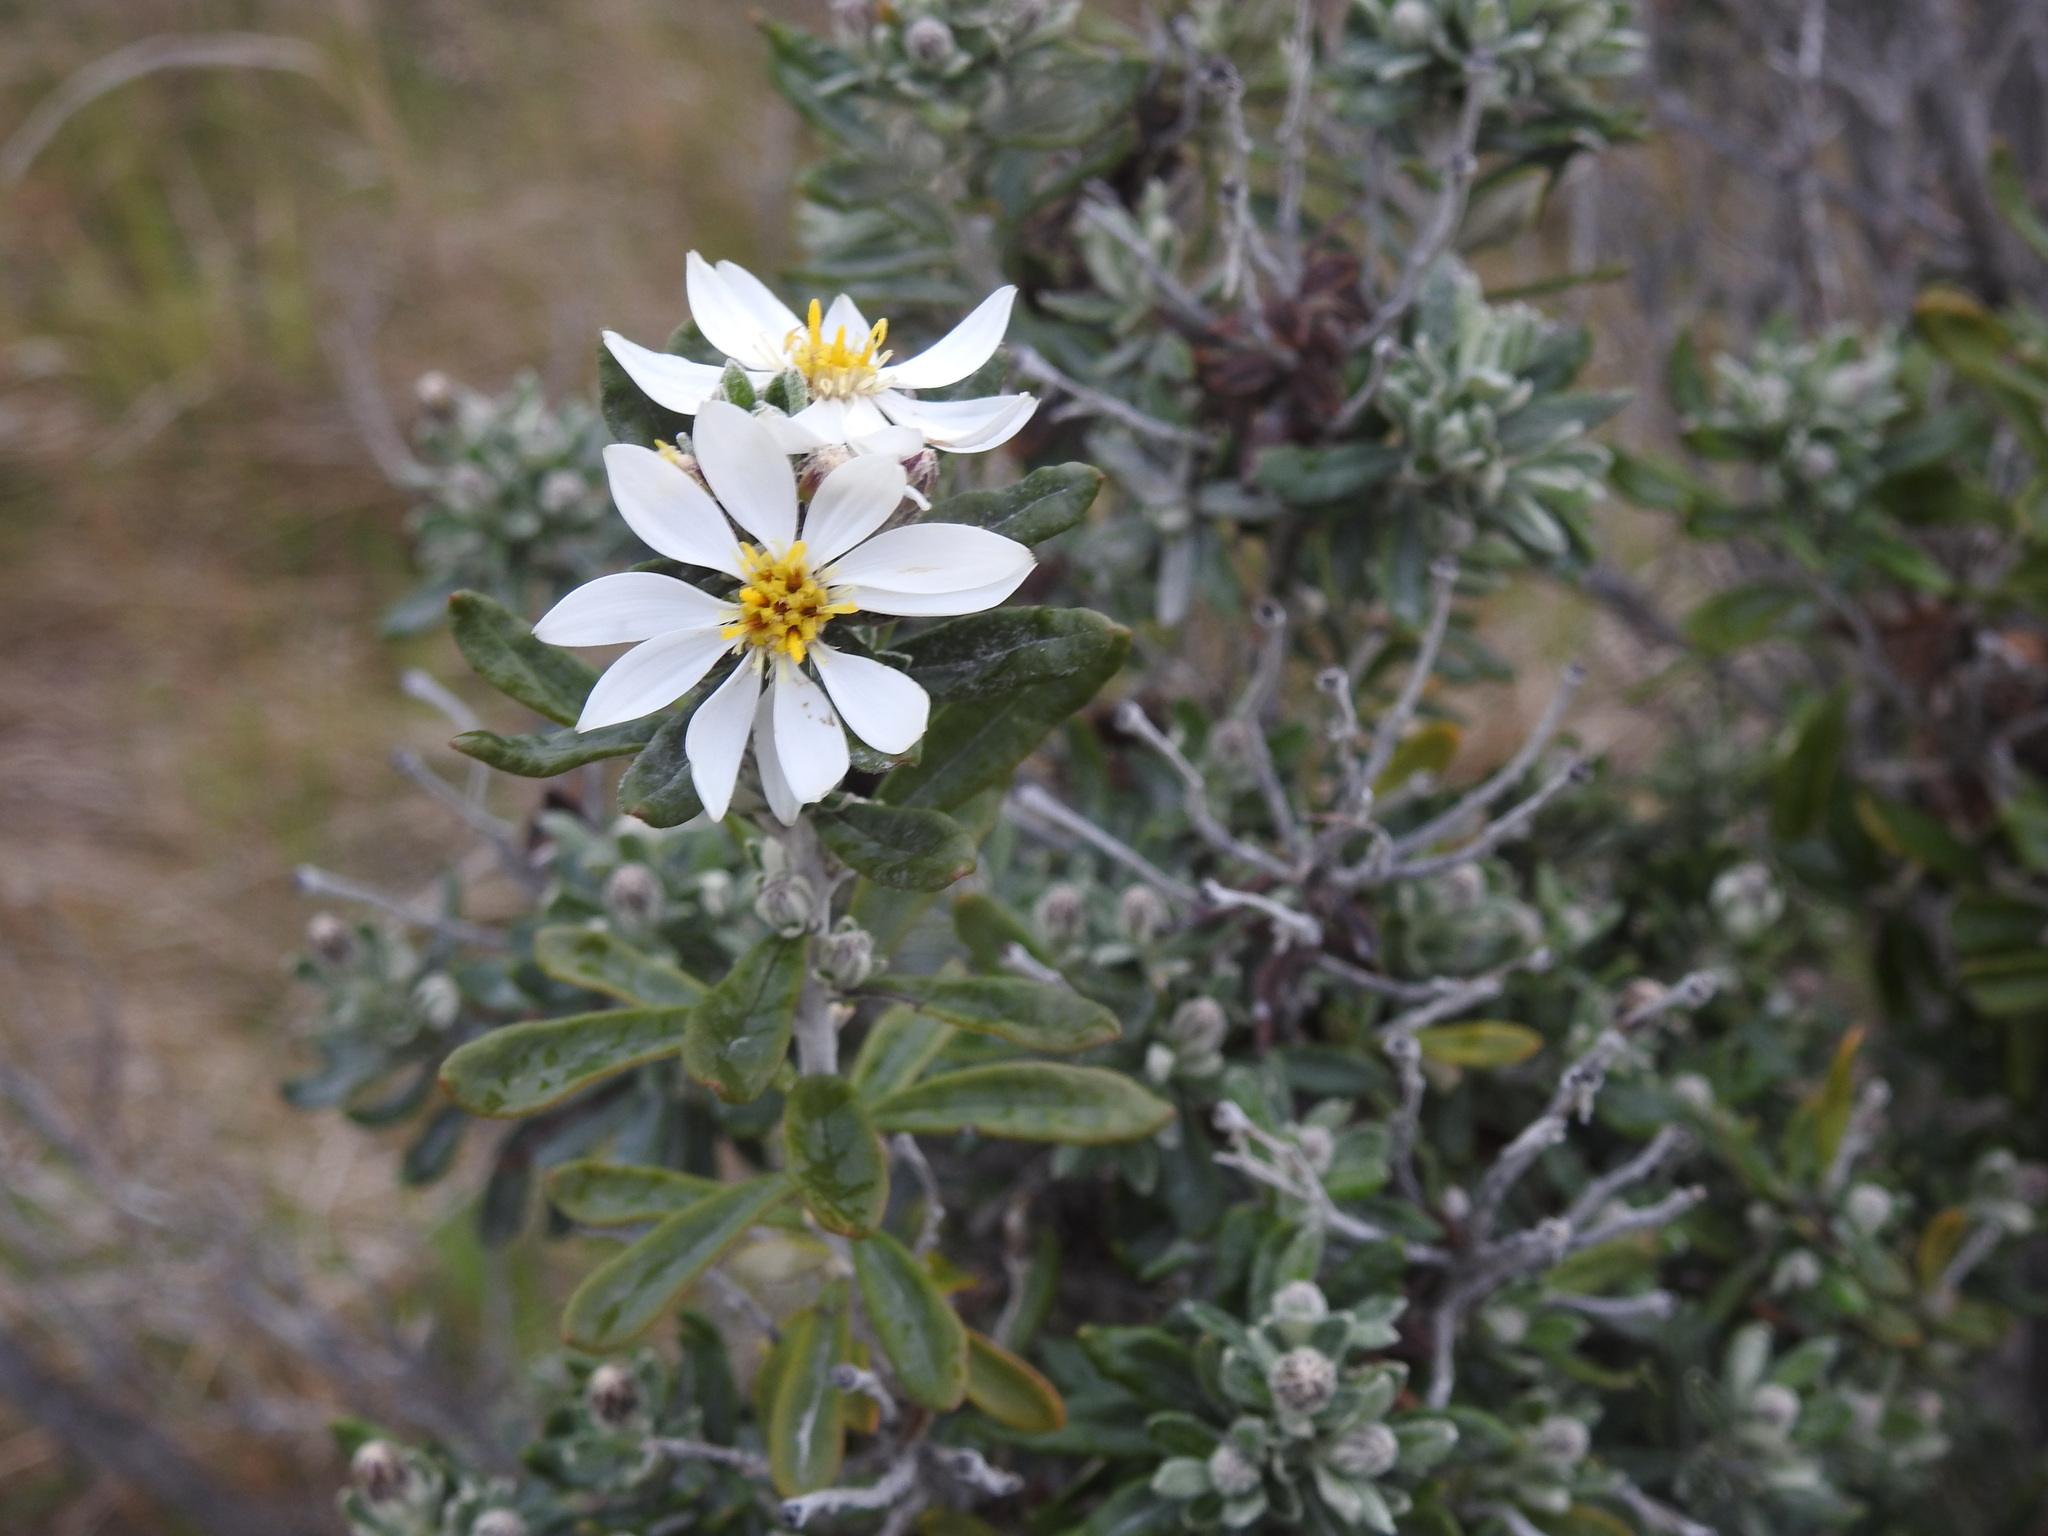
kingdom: Plantae
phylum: Tracheophyta
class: Magnoliopsida
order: Asterales
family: Asteraceae
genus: Chiliotrichum
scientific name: Chiliotrichum diffusum
